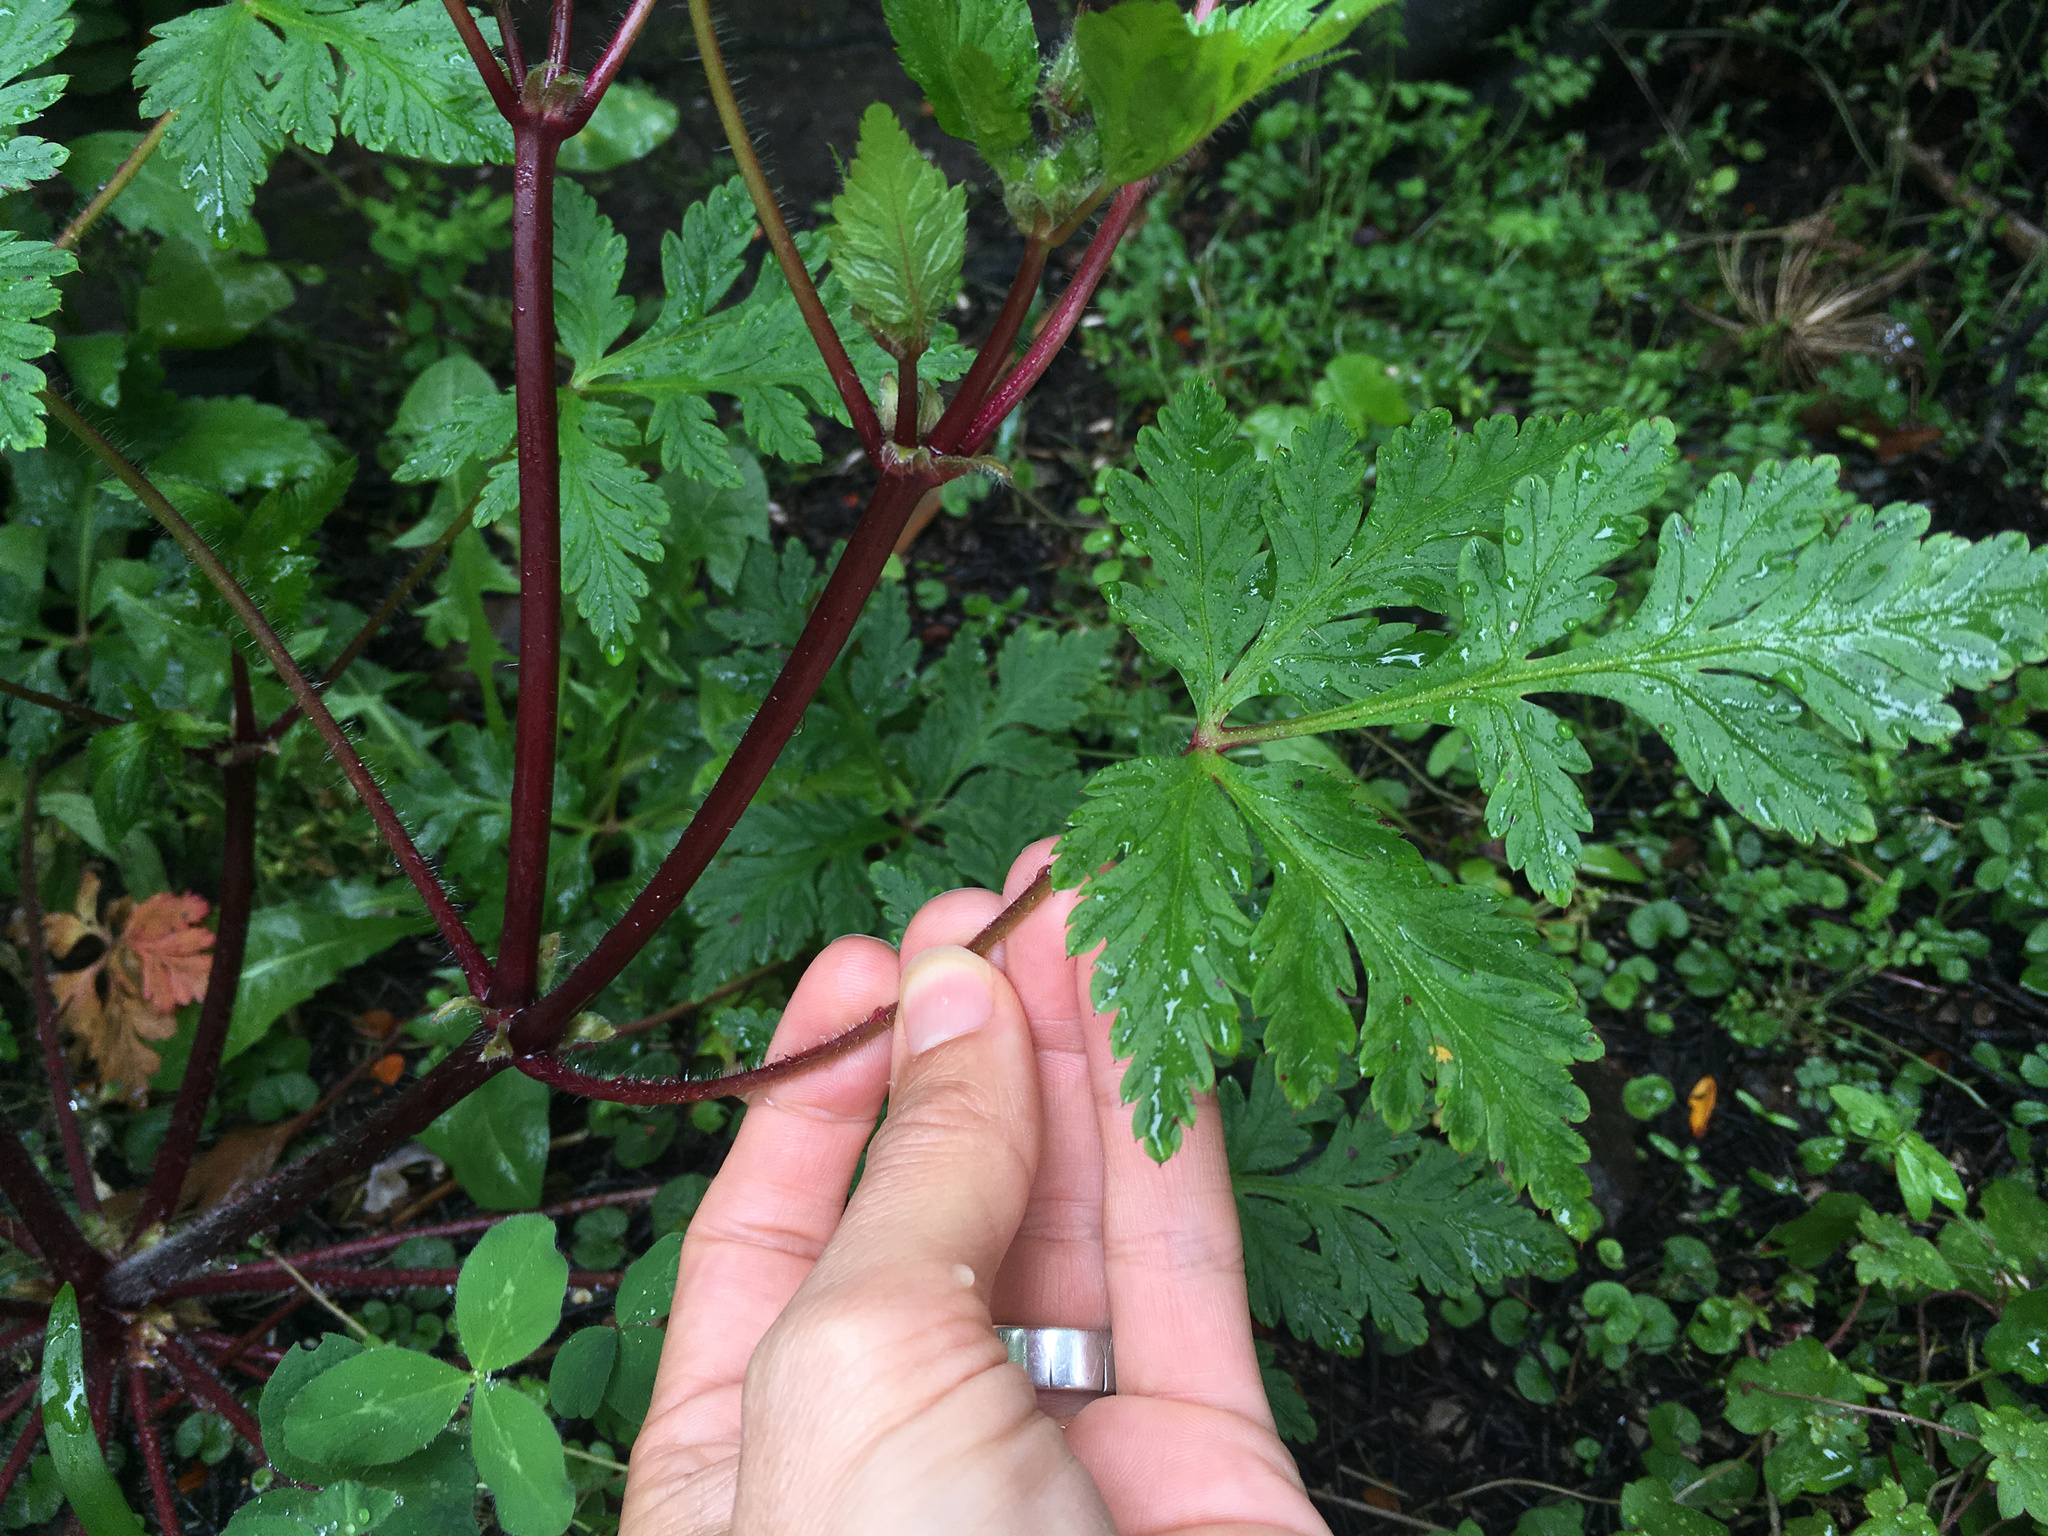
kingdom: Plantae
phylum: Tracheophyta
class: Magnoliopsida
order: Geraniales
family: Geraniaceae
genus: Geranium
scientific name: Geranium yeoi
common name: Greater herb robert
